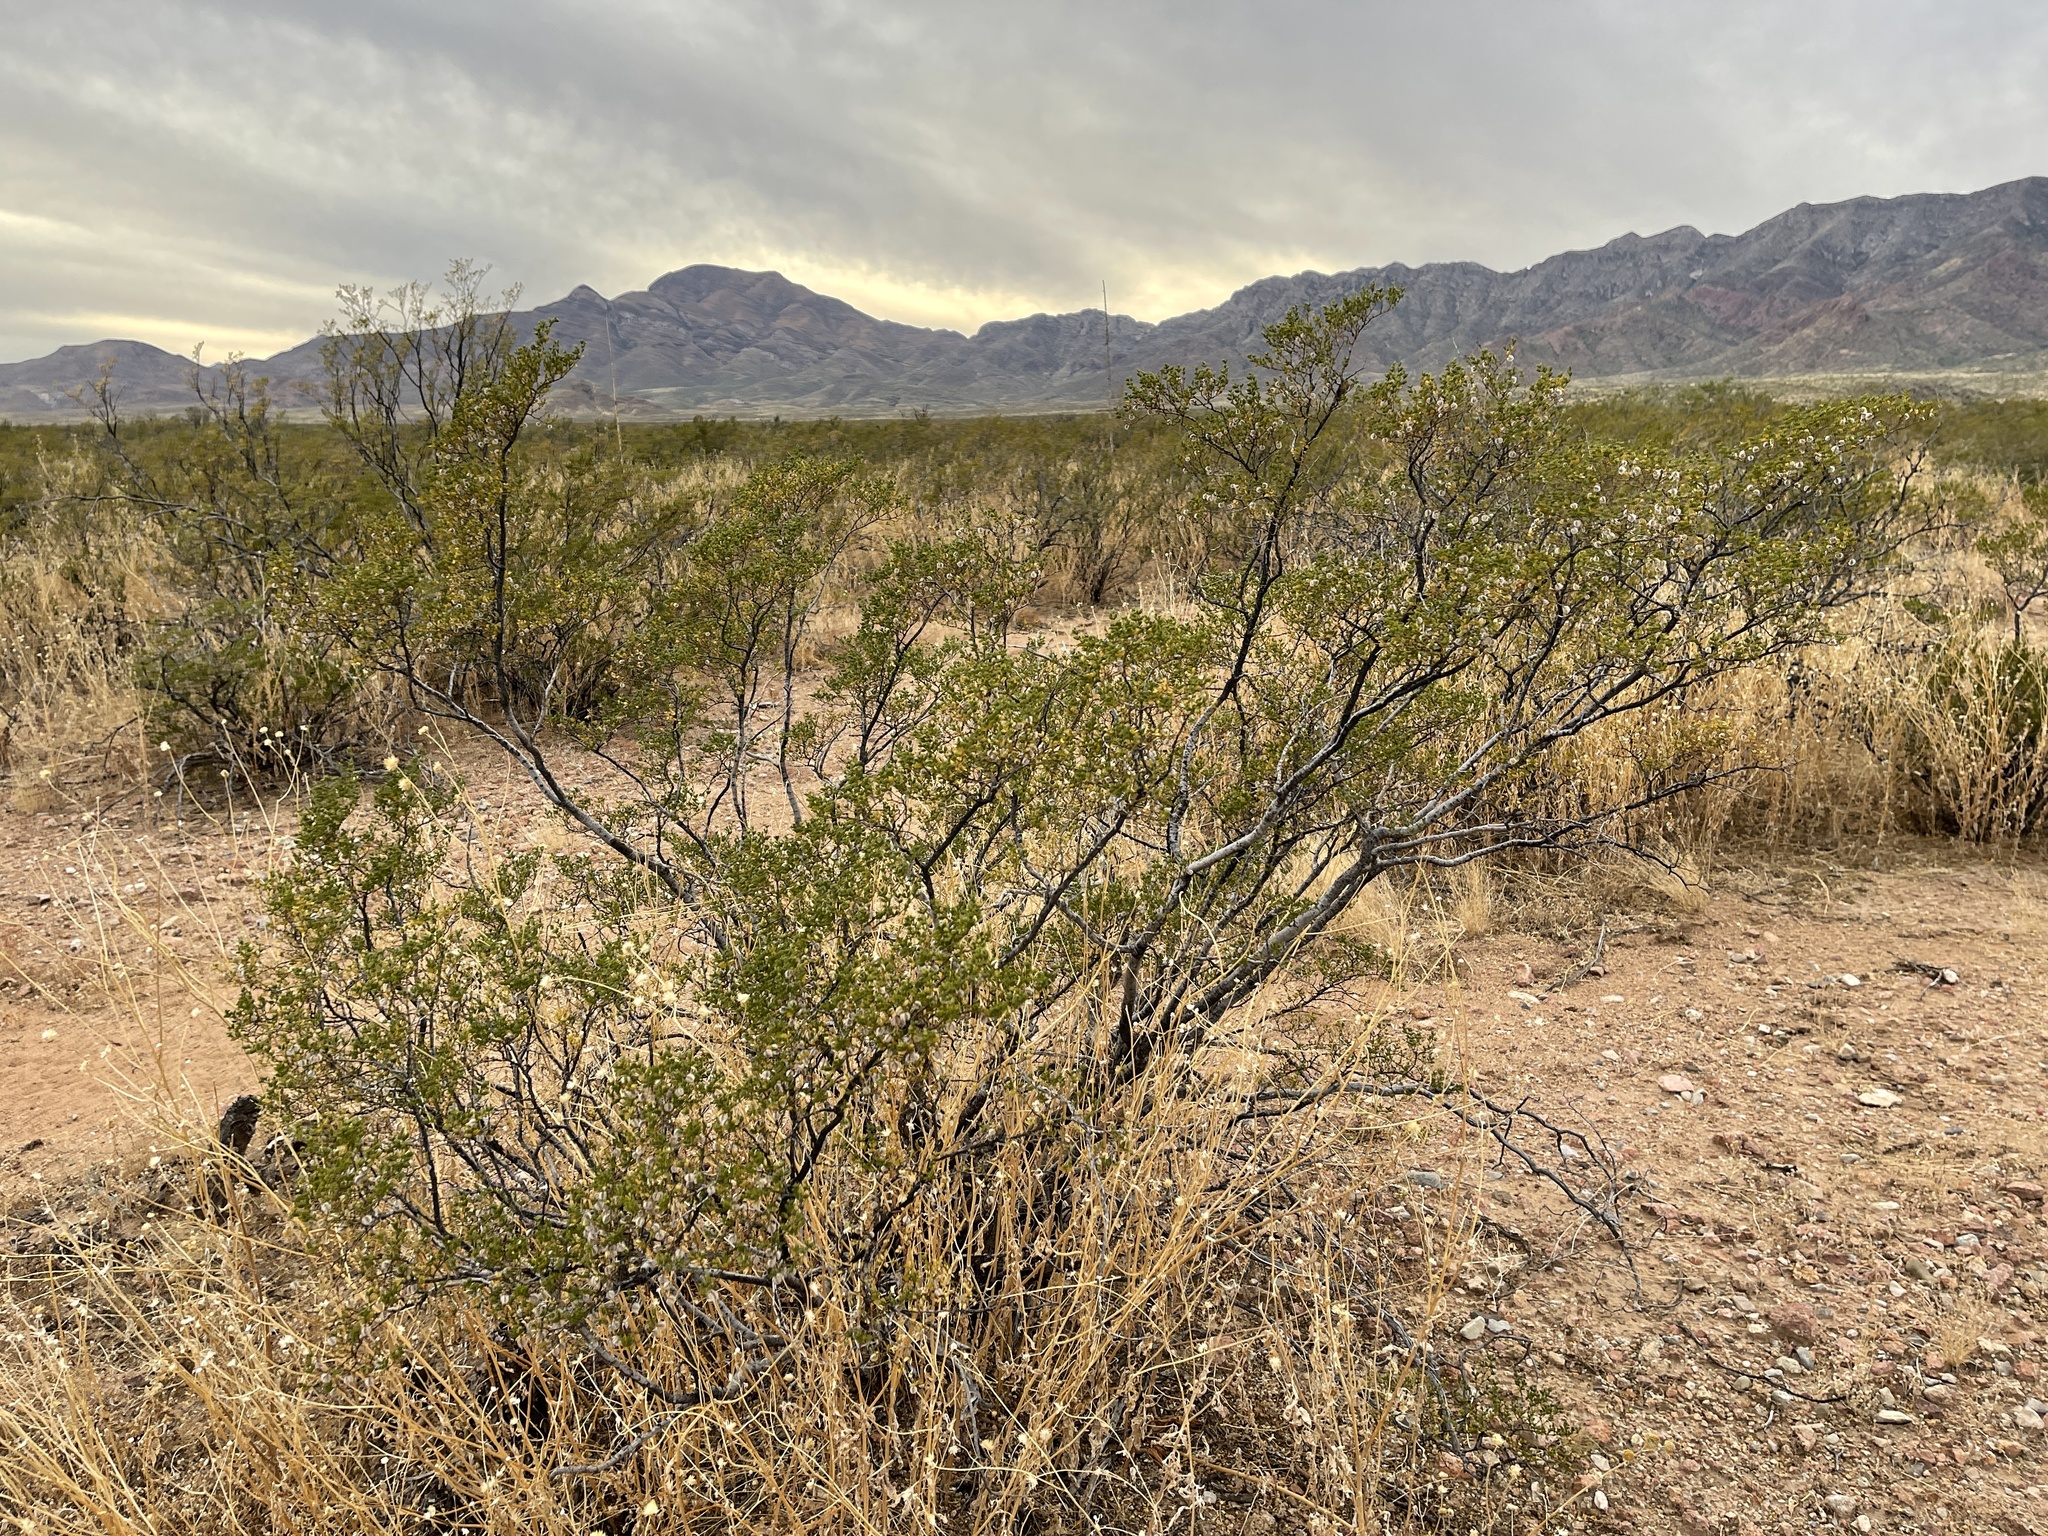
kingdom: Plantae
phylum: Tracheophyta
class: Magnoliopsida
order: Zygophyllales
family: Zygophyllaceae
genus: Larrea
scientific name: Larrea tridentata
